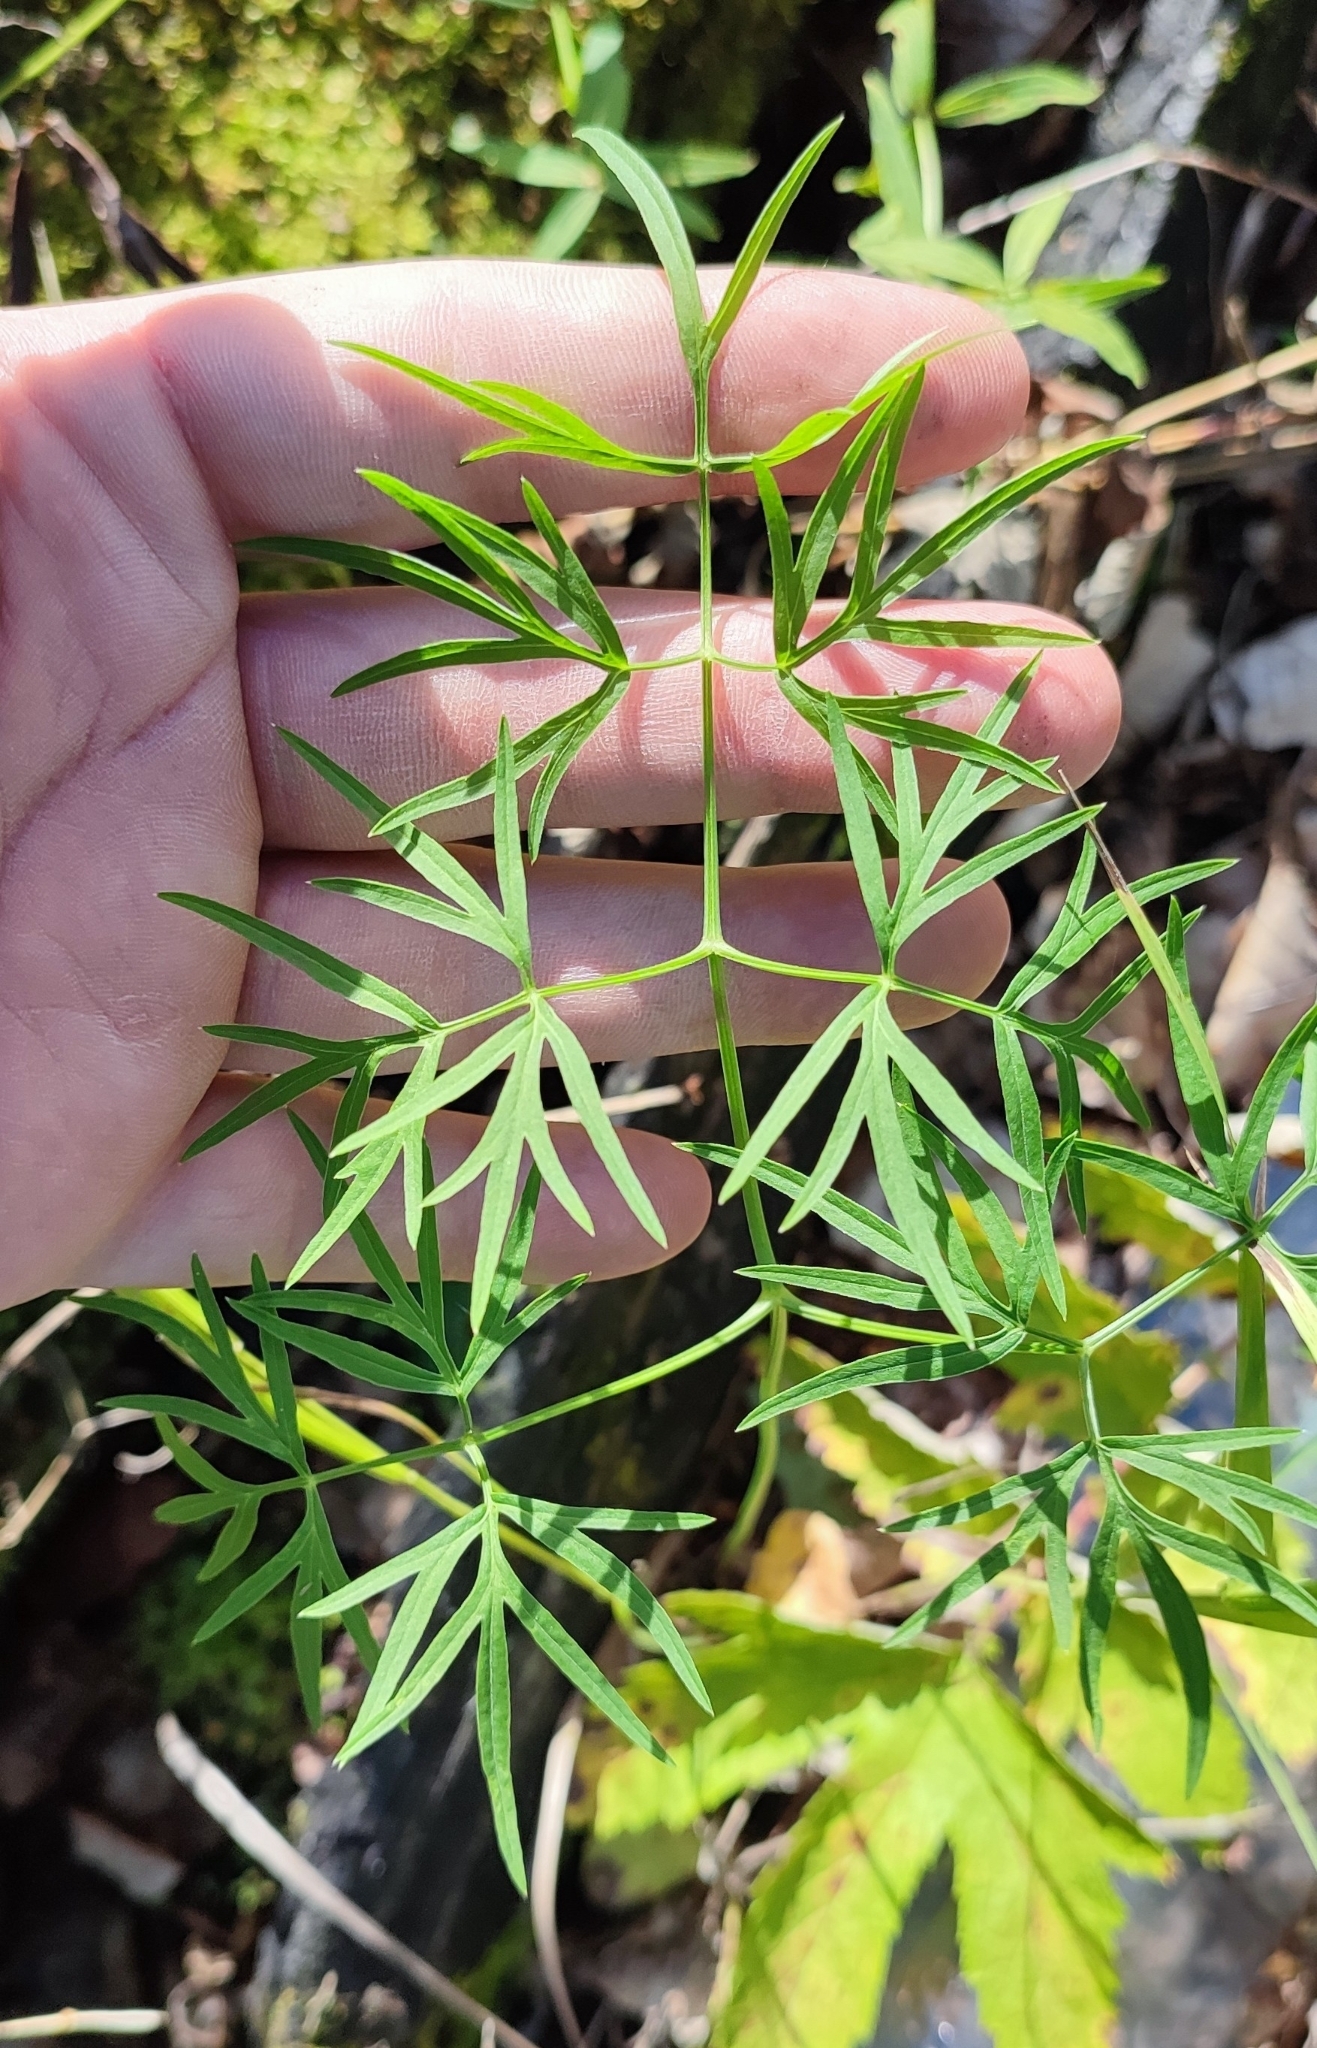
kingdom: Plantae
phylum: Tracheophyta
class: Magnoliopsida
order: Apiales
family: Apiaceae
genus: Cenolophium
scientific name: Cenolophium fischeri
